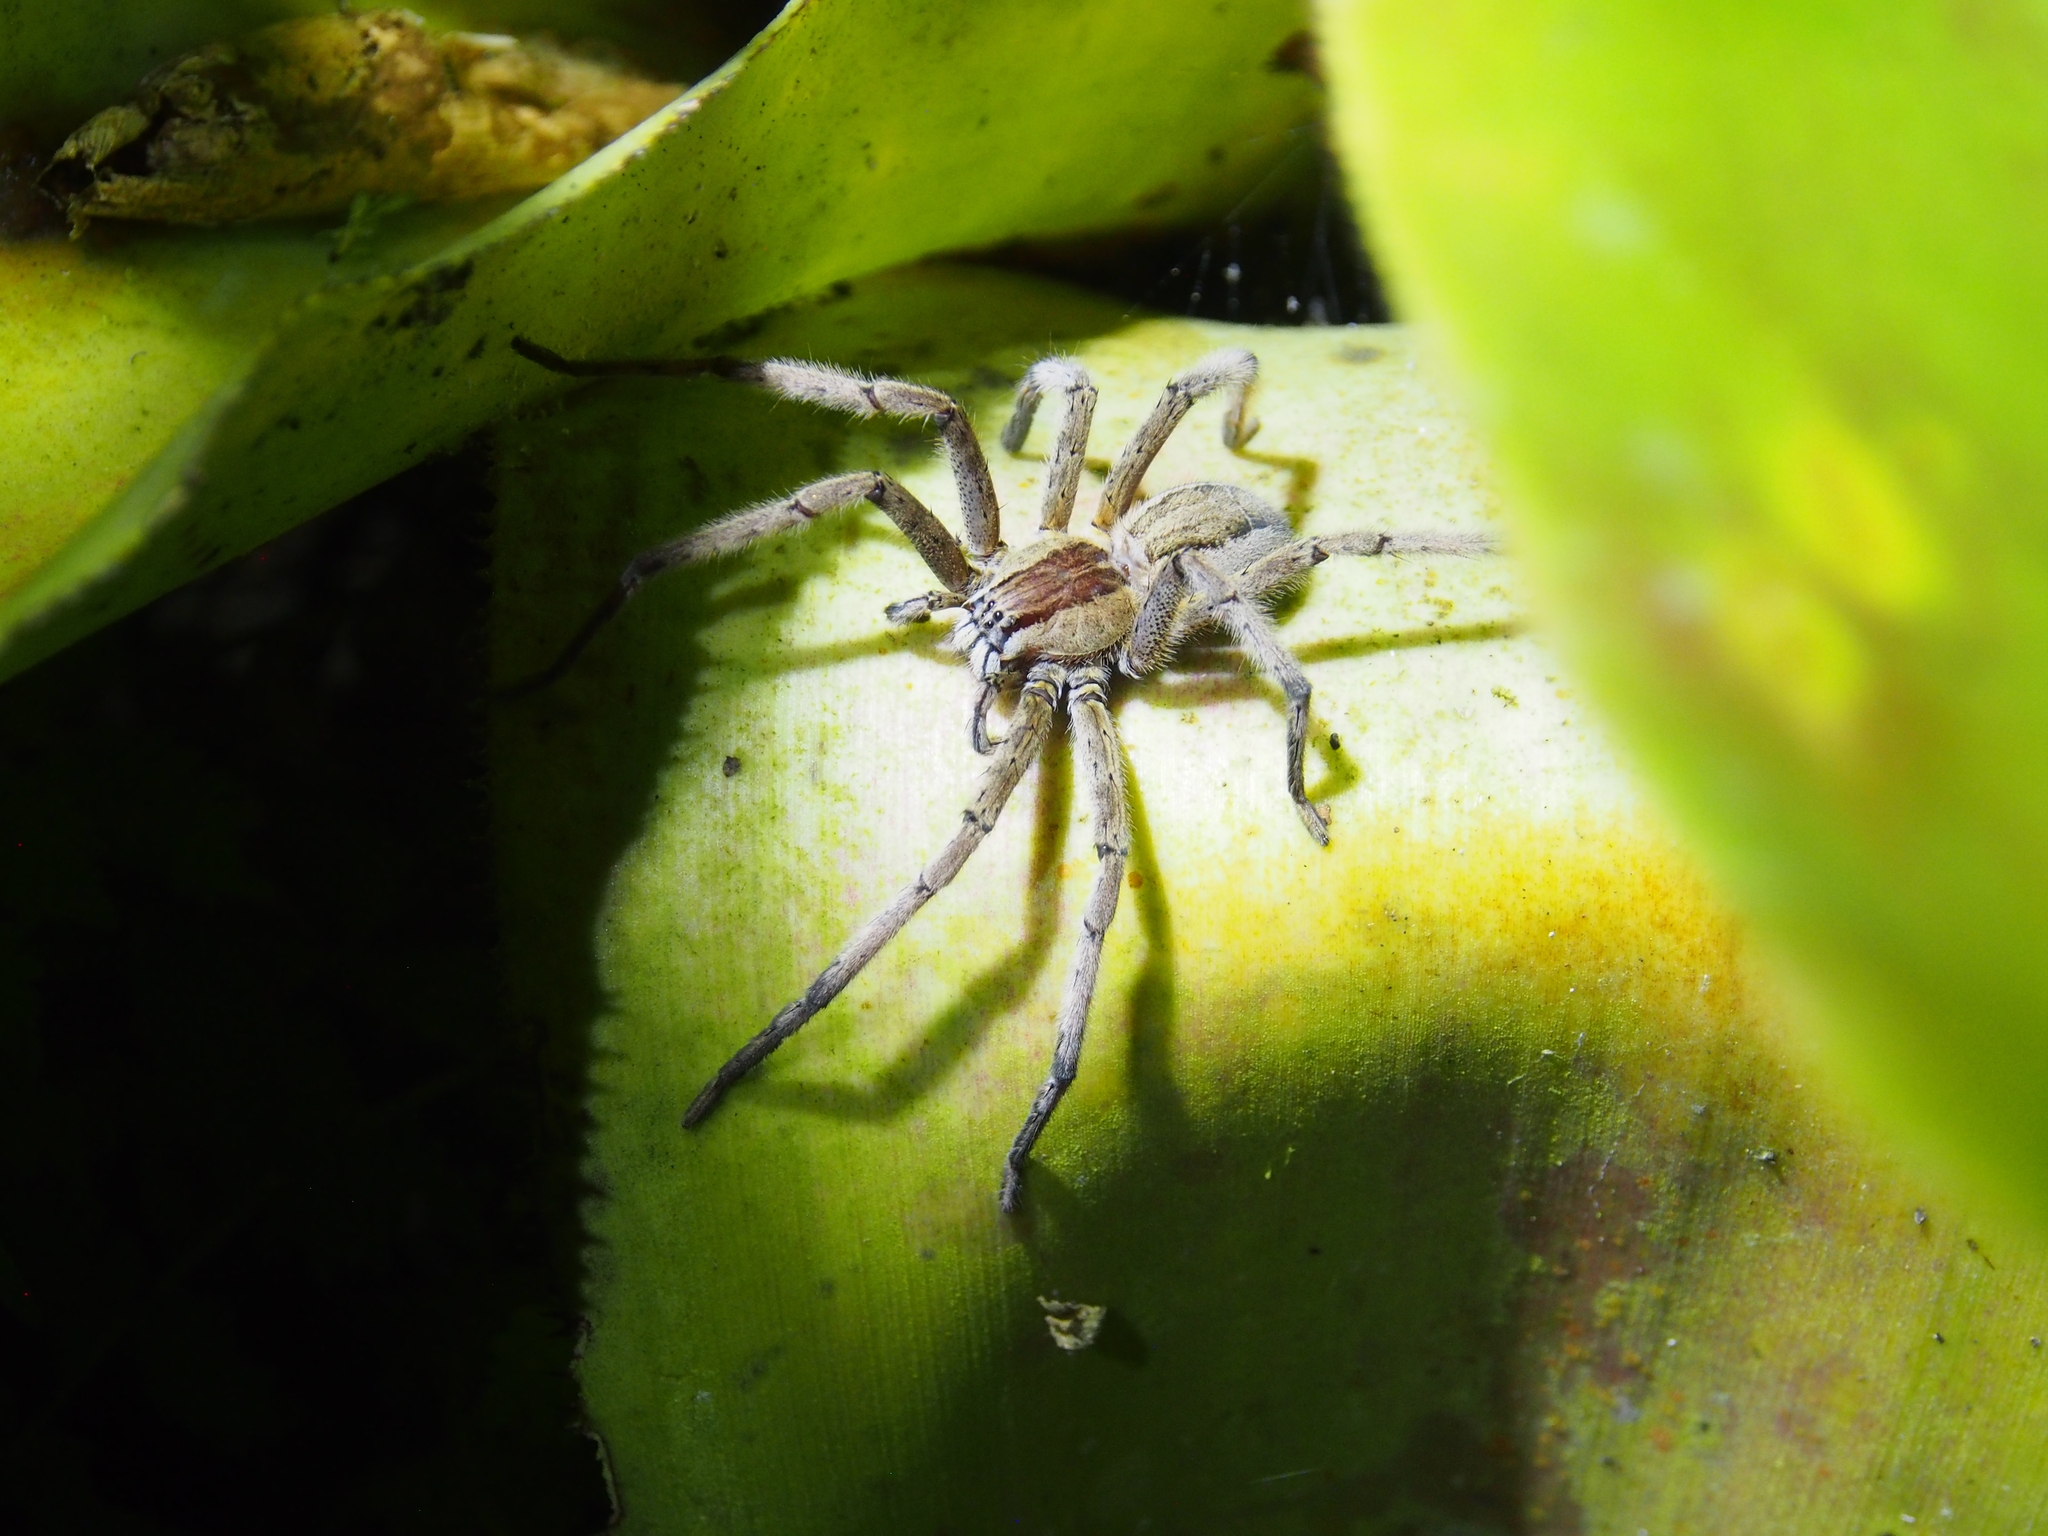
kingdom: Animalia
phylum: Arthropoda
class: Arachnida
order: Araneae
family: Trechaleidae
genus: Cupiennius
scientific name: Cupiennius getazi
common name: Wandering spiders
